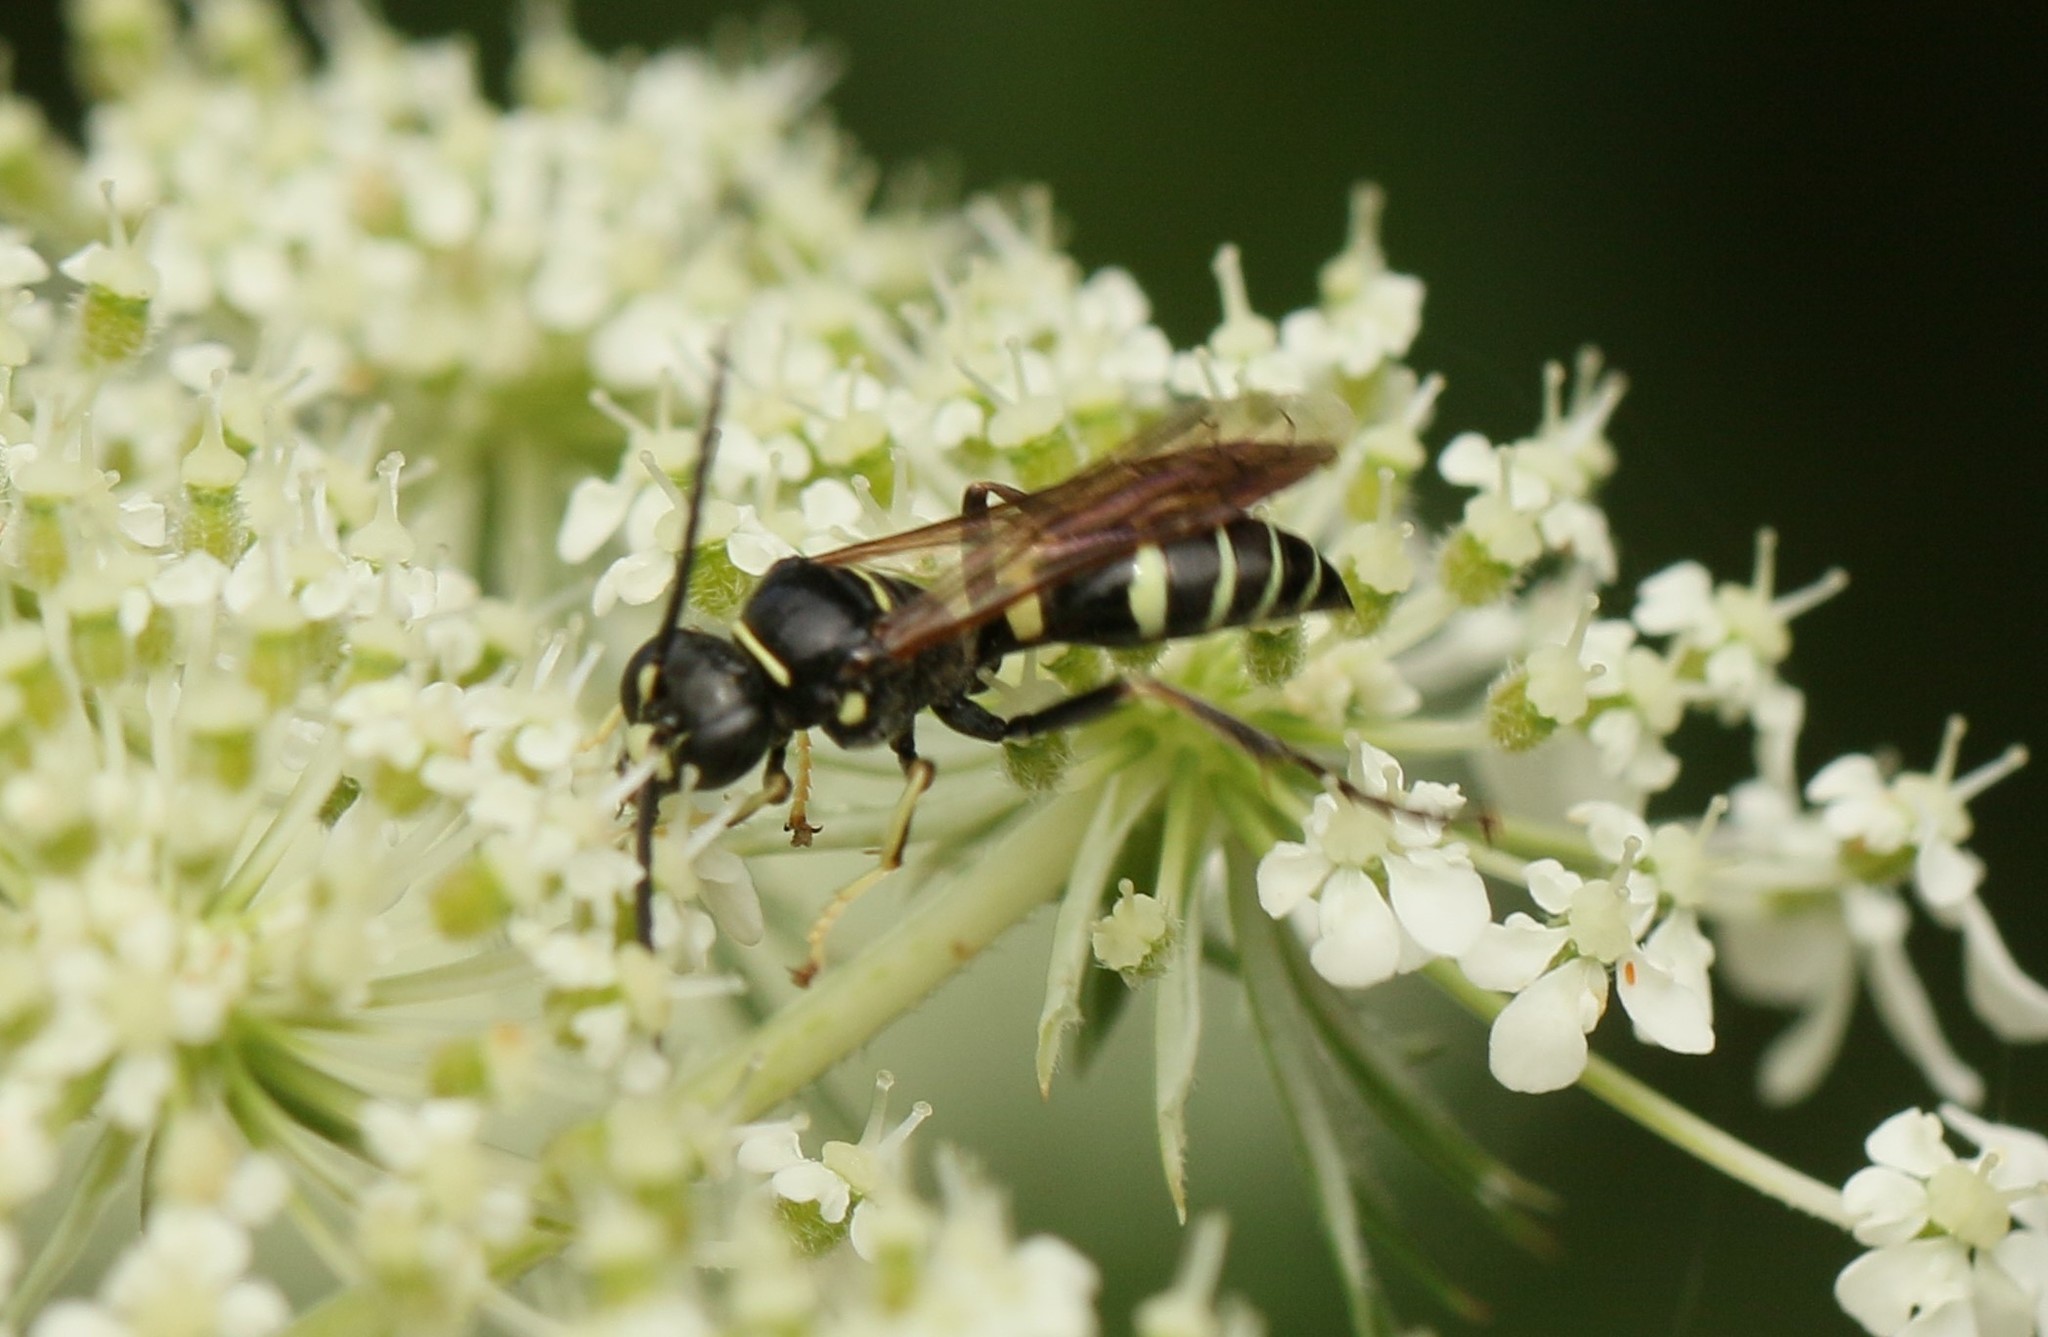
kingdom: Animalia
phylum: Arthropoda
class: Insecta
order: Hymenoptera
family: Crabronidae
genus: Gorytes
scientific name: Gorytes
